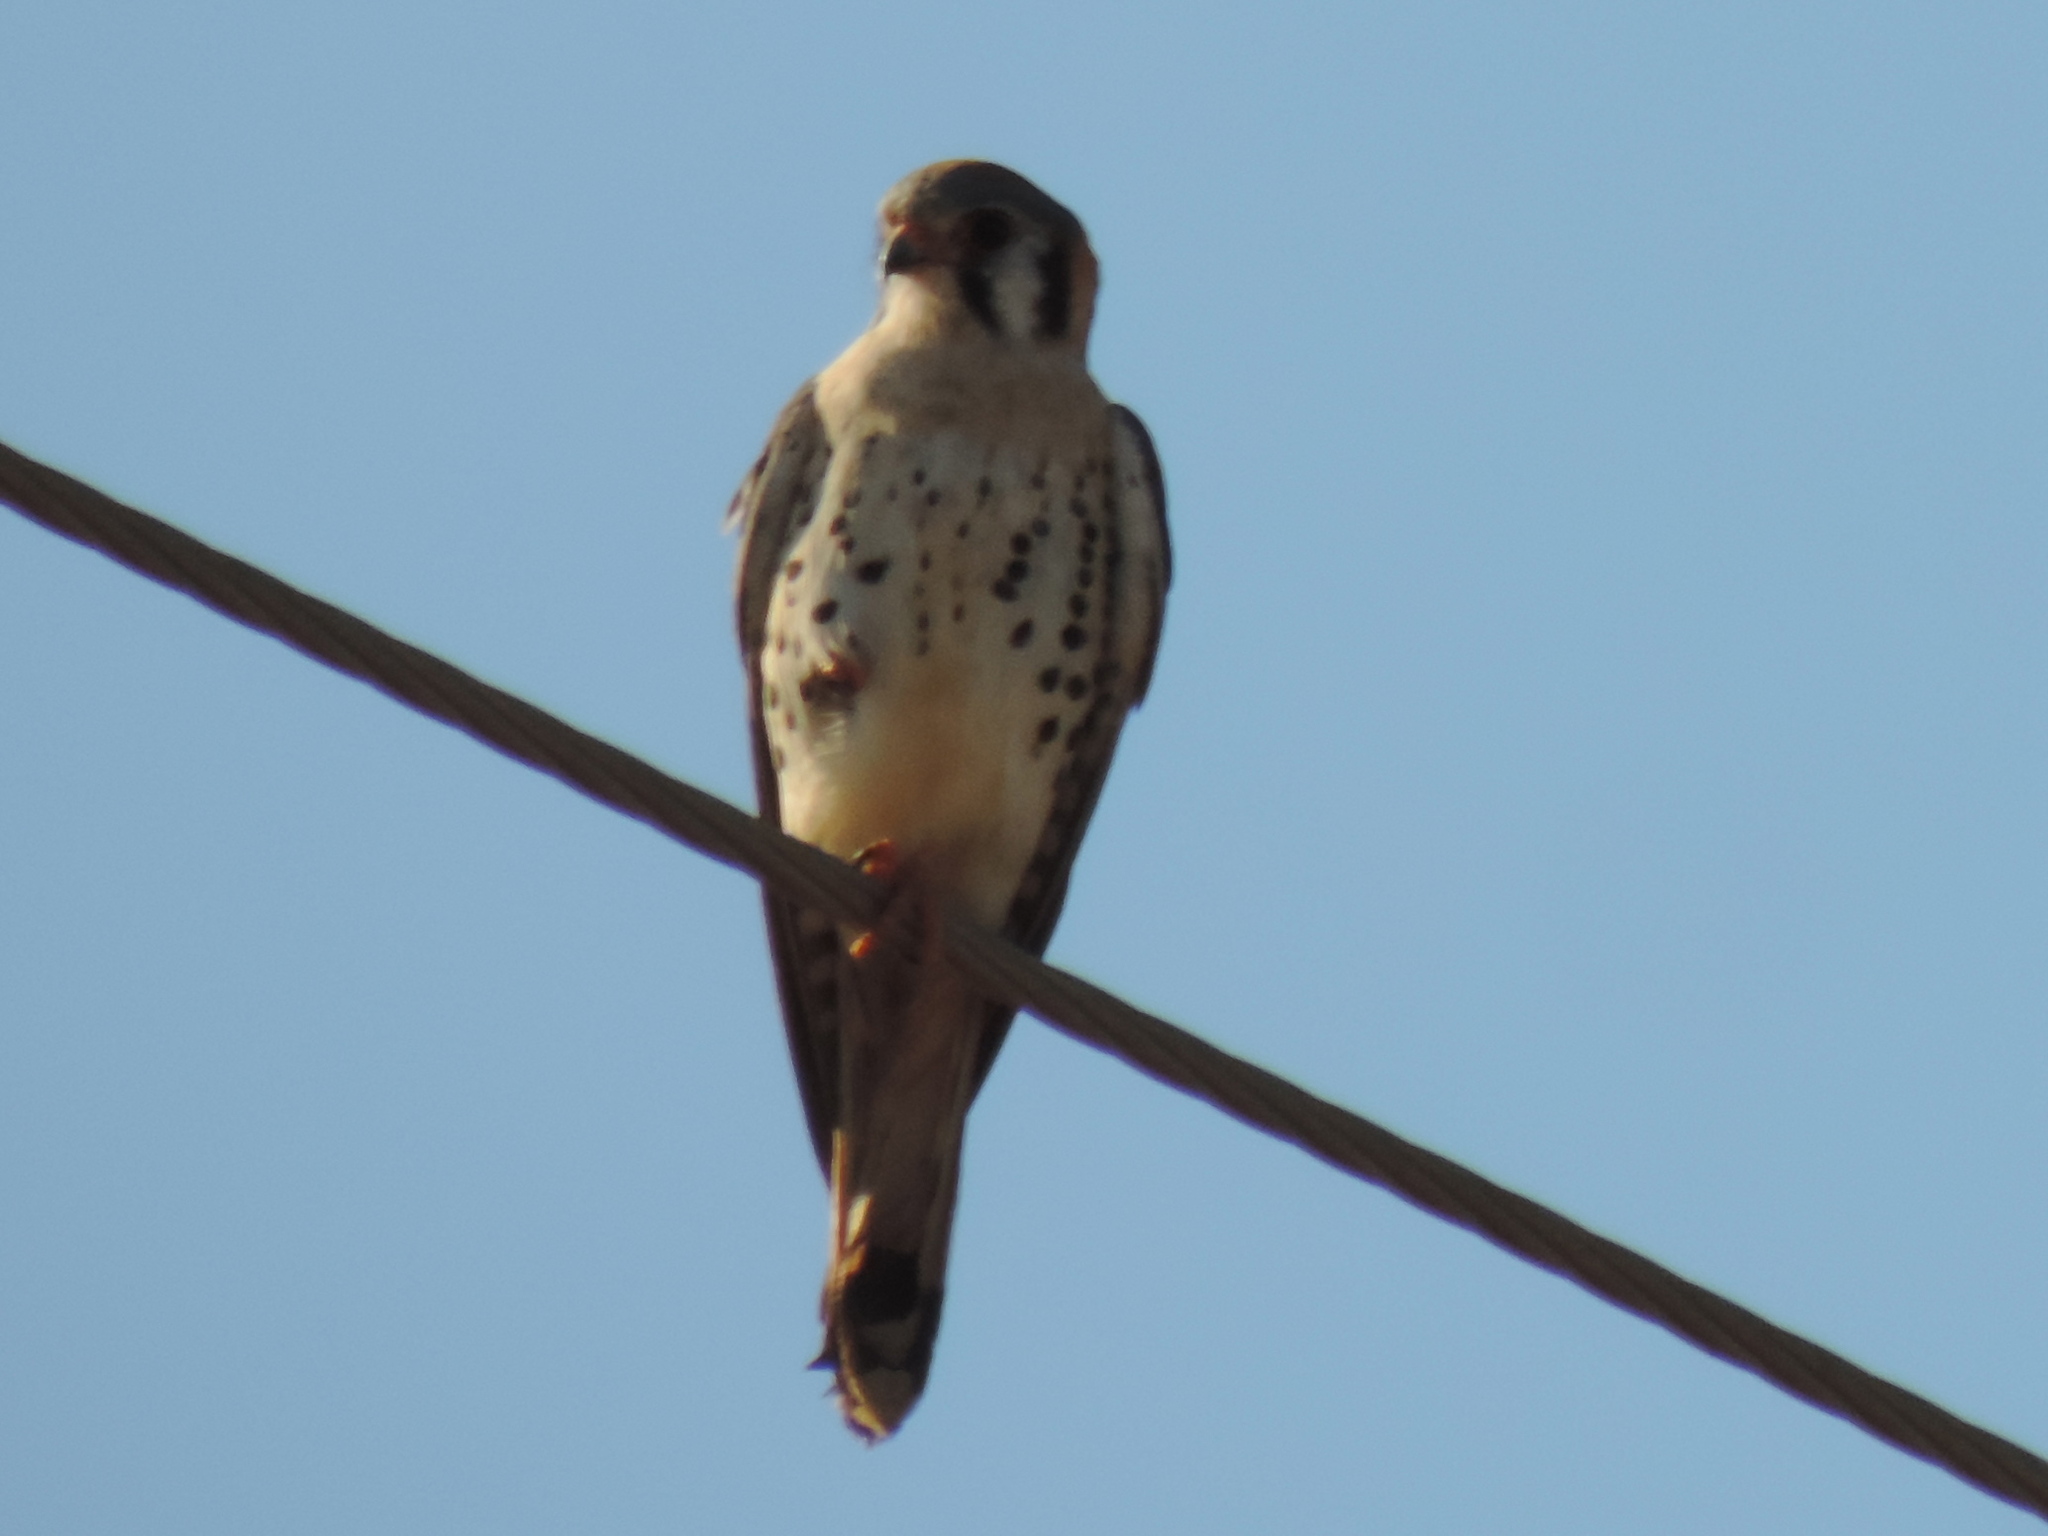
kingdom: Animalia
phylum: Chordata
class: Aves
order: Falconiformes
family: Falconidae
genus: Falco
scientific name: Falco sparverius
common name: American kestrel
